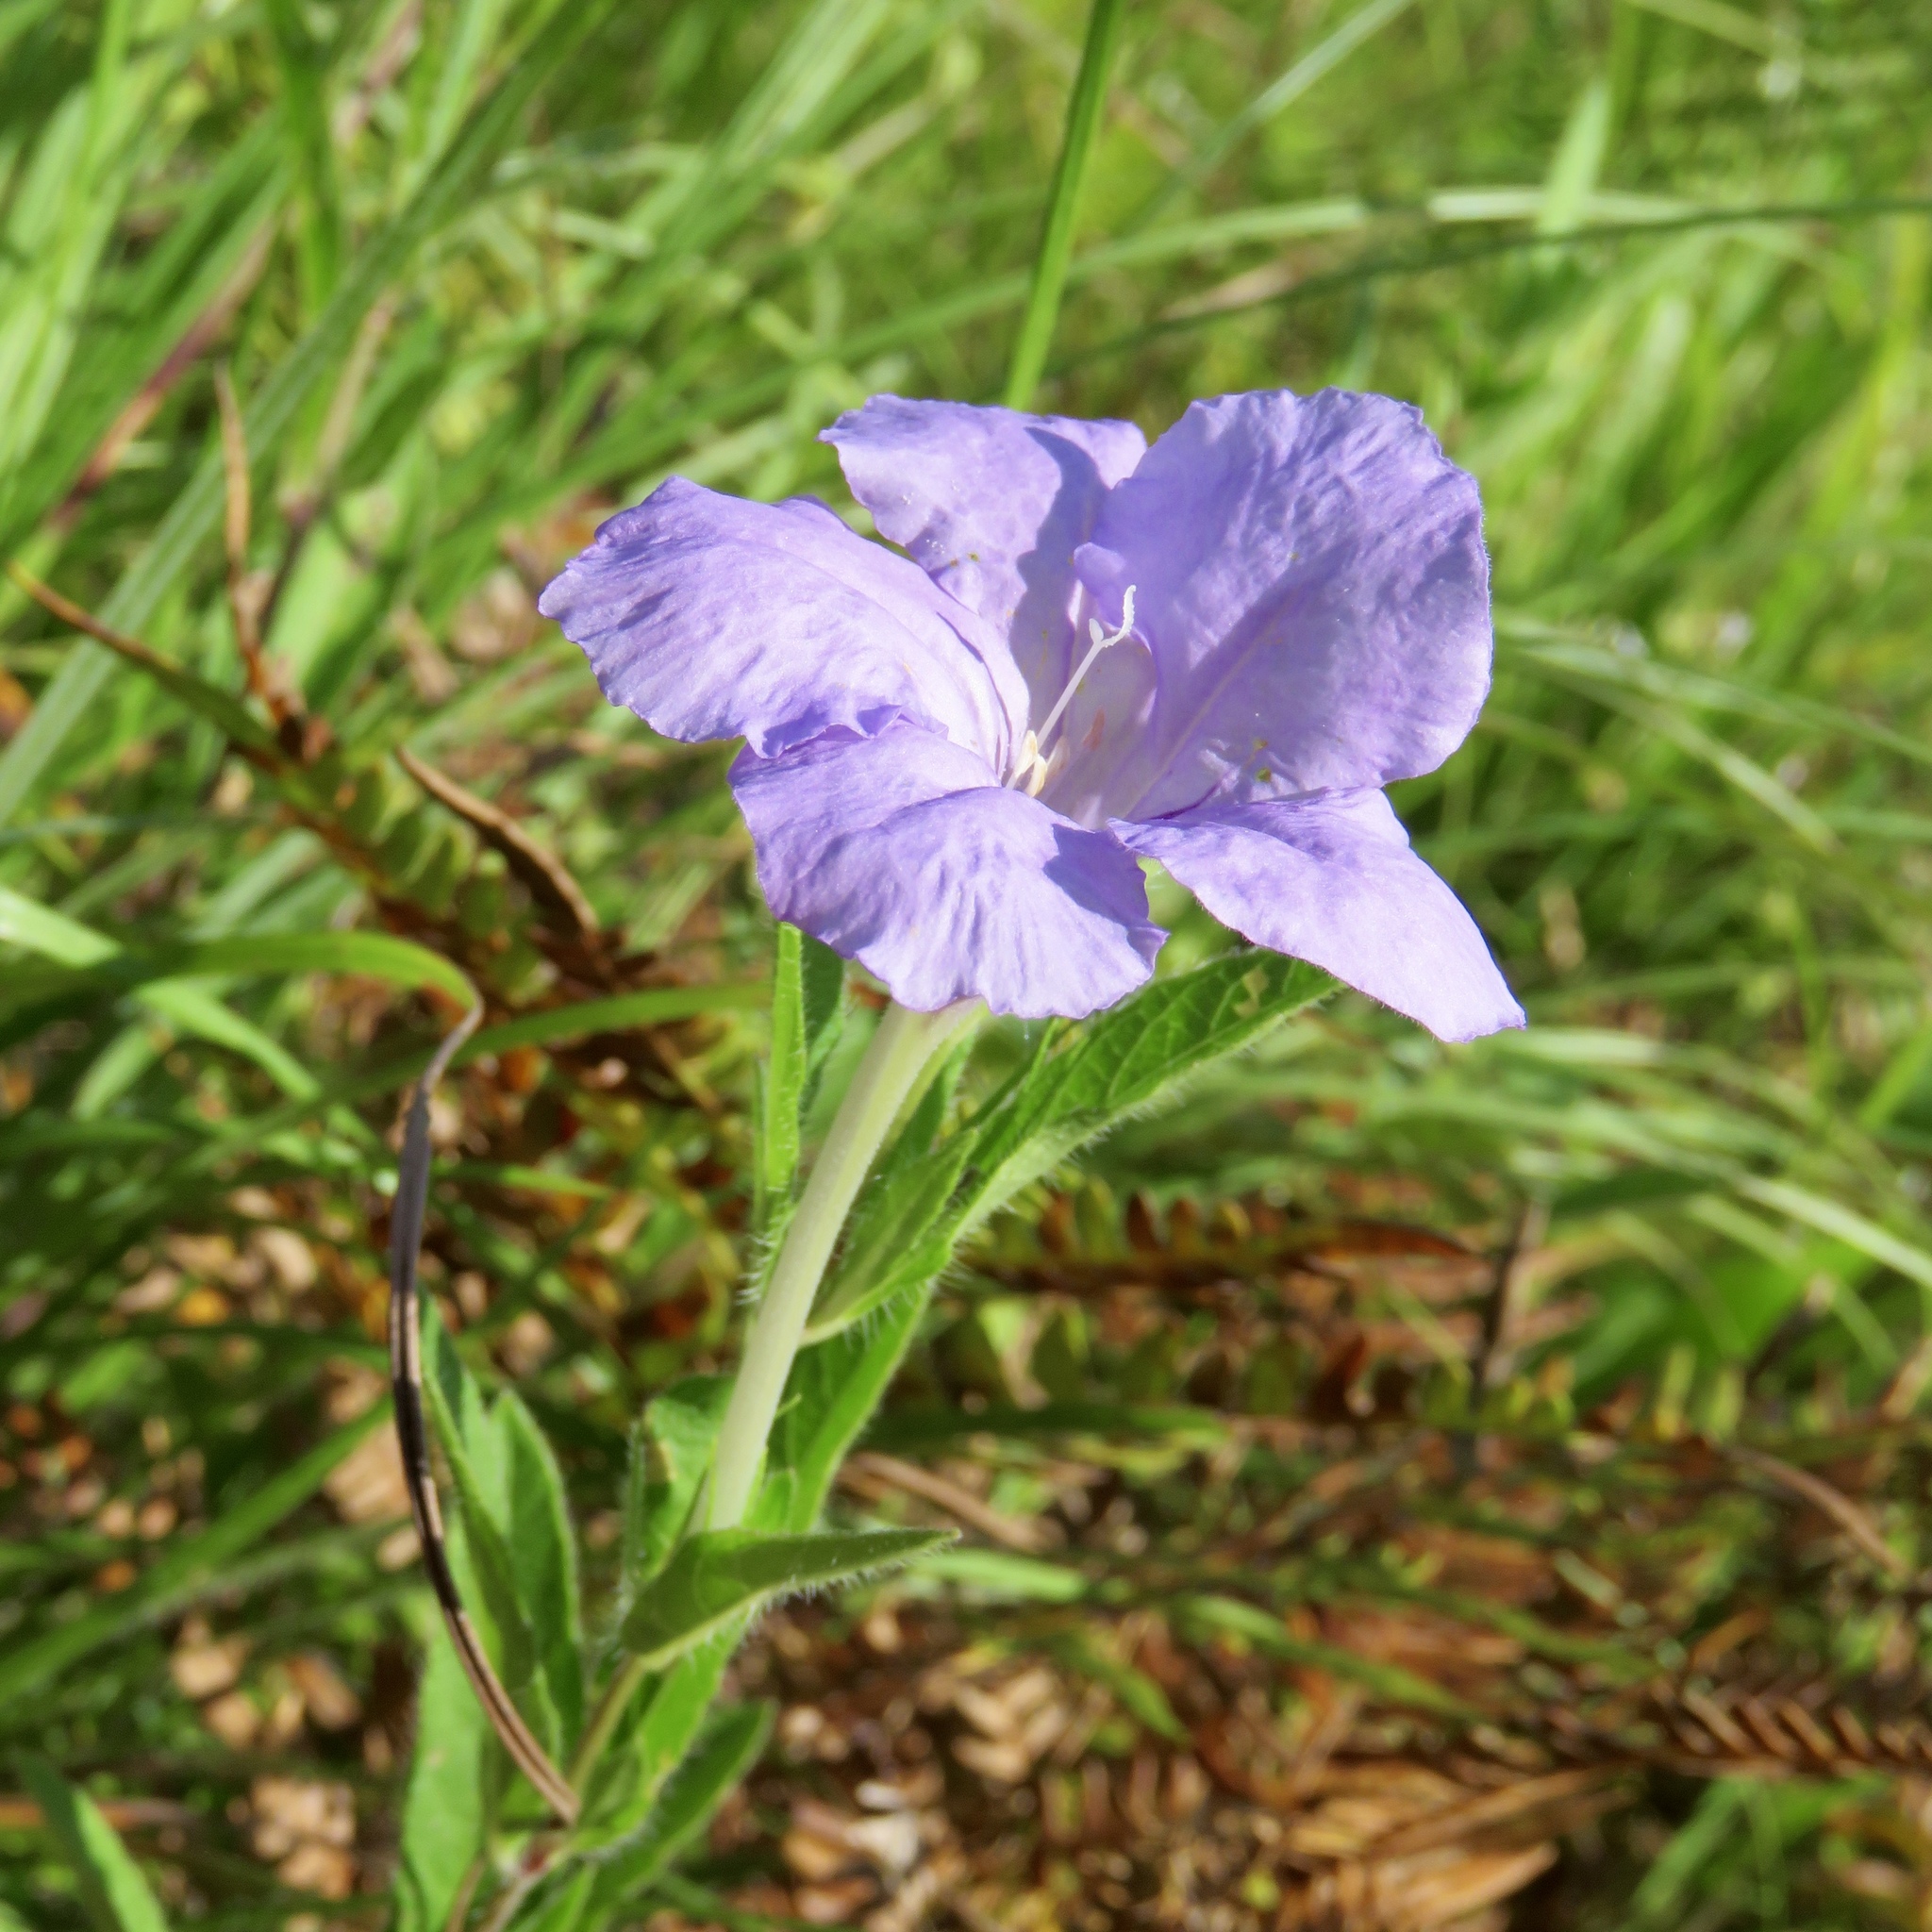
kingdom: Plantae
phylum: Tracheophyta
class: Magnoliopsida
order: Lamiales
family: Acanthaceae
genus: Ruellia
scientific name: Ruellia humilis
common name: Fringe-leaf ruellia
